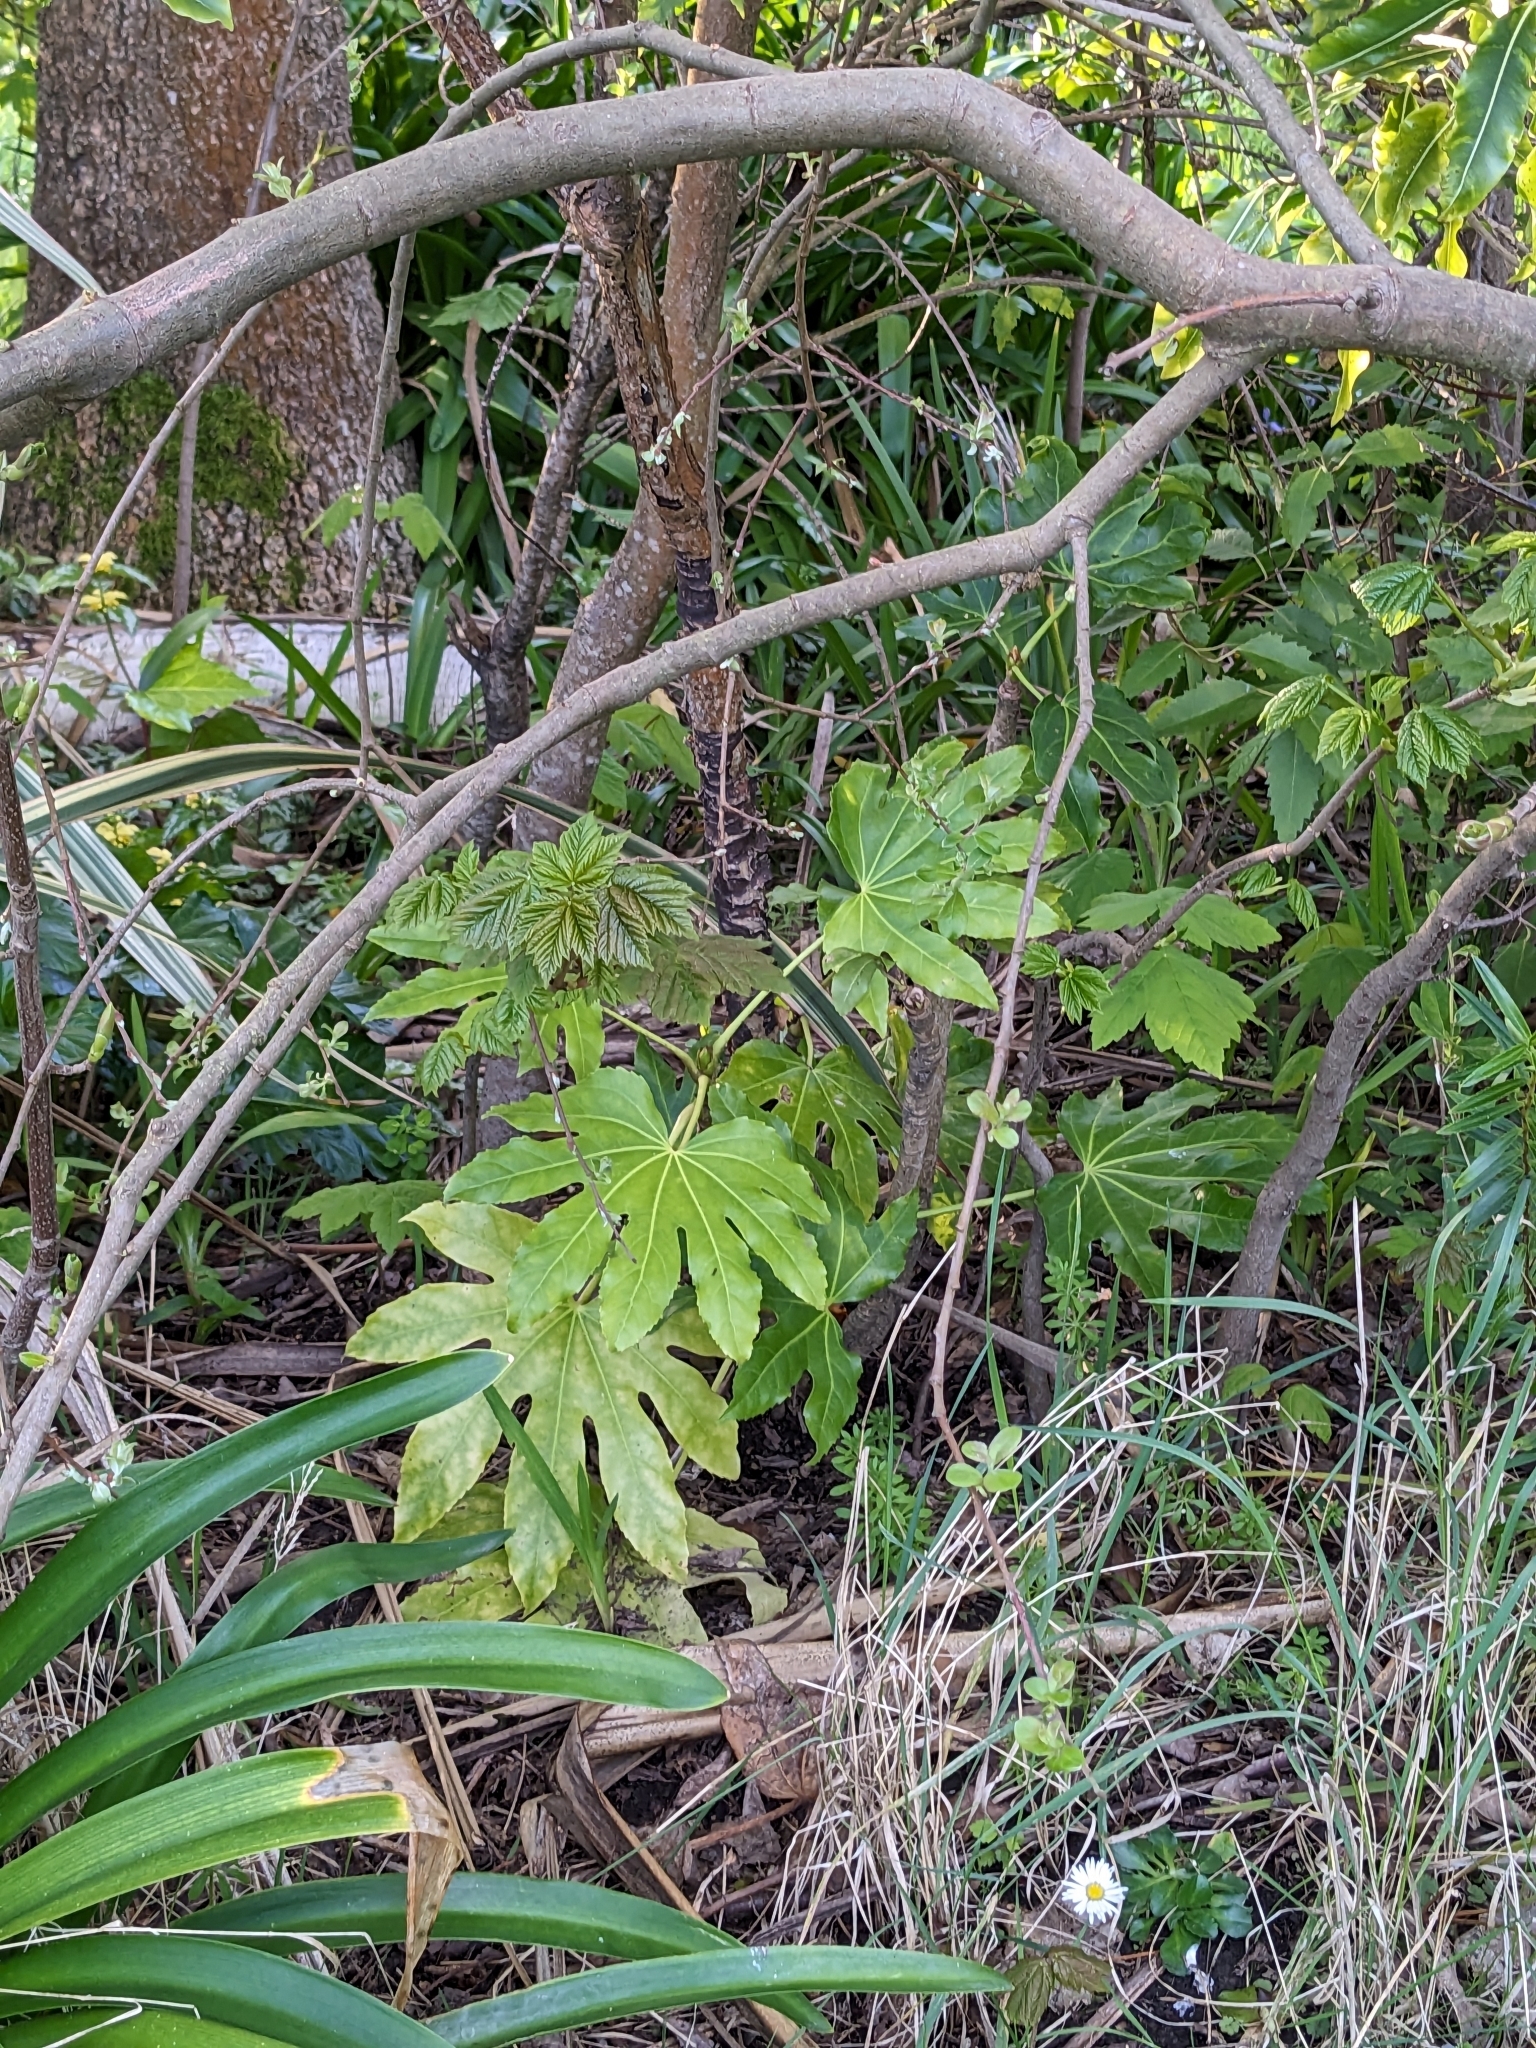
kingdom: Plantae
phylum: Tracheophyta
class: Magnoliopsida
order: Apiales
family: Araliaceae
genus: Fatsia
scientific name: Fatsia japonica
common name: Fatsia
